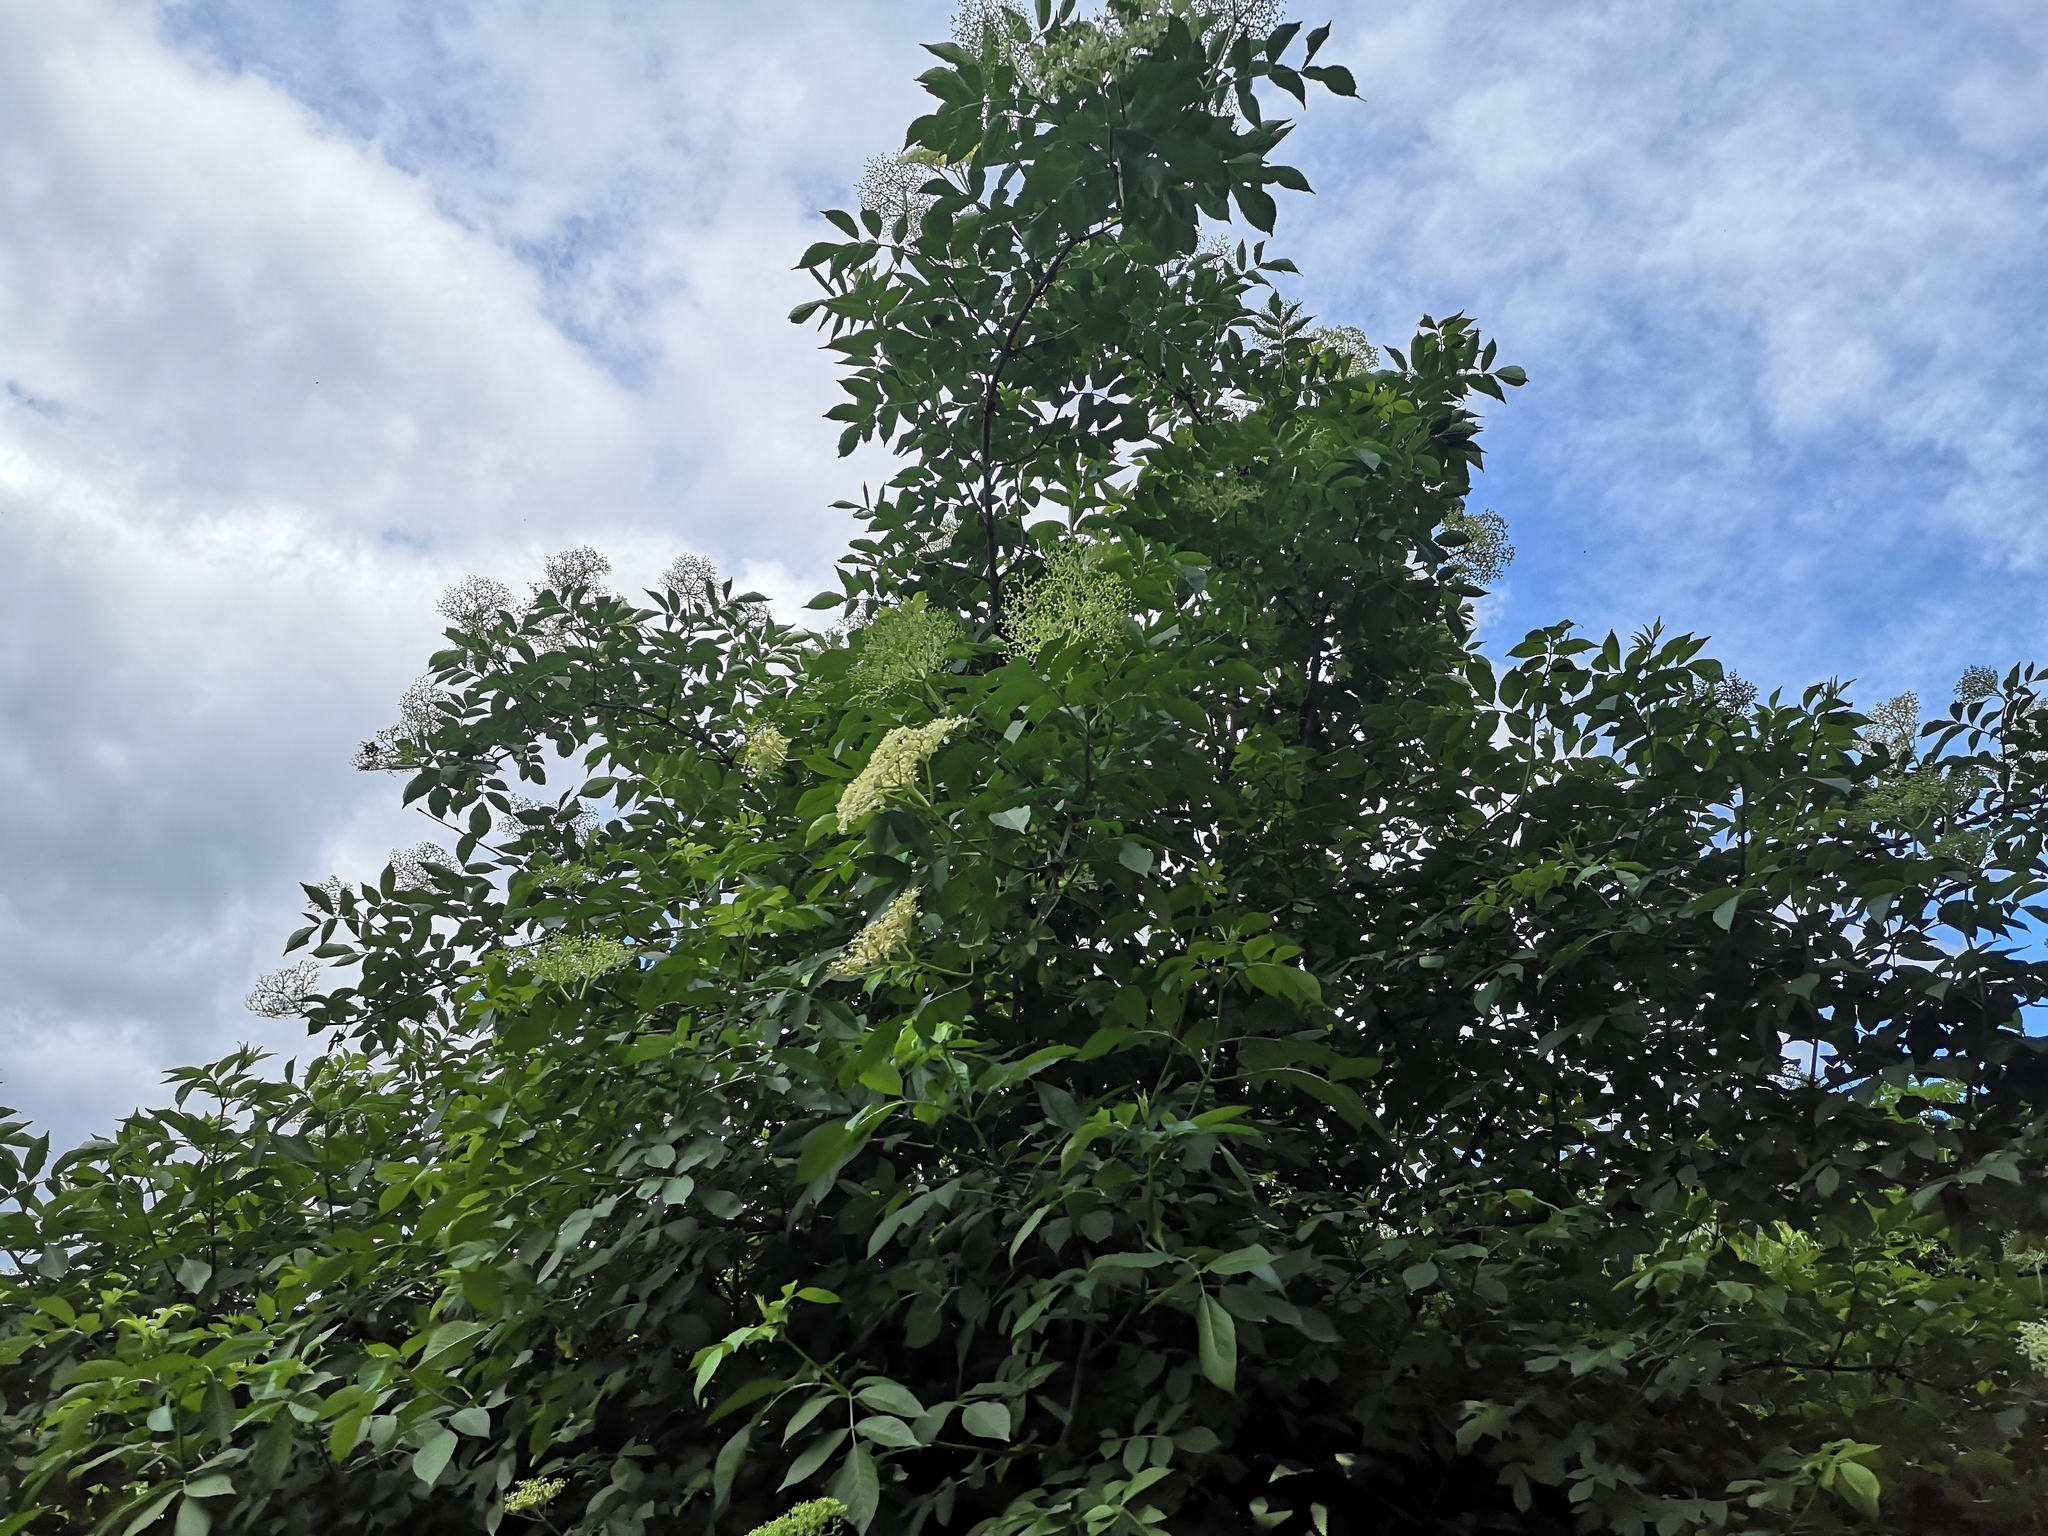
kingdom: Plantae
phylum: Tracheophyta
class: Magnoliopsida
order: Dipsacales
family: Viburnaceae
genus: Sambucus
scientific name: Sambucus nigra
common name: Elder
